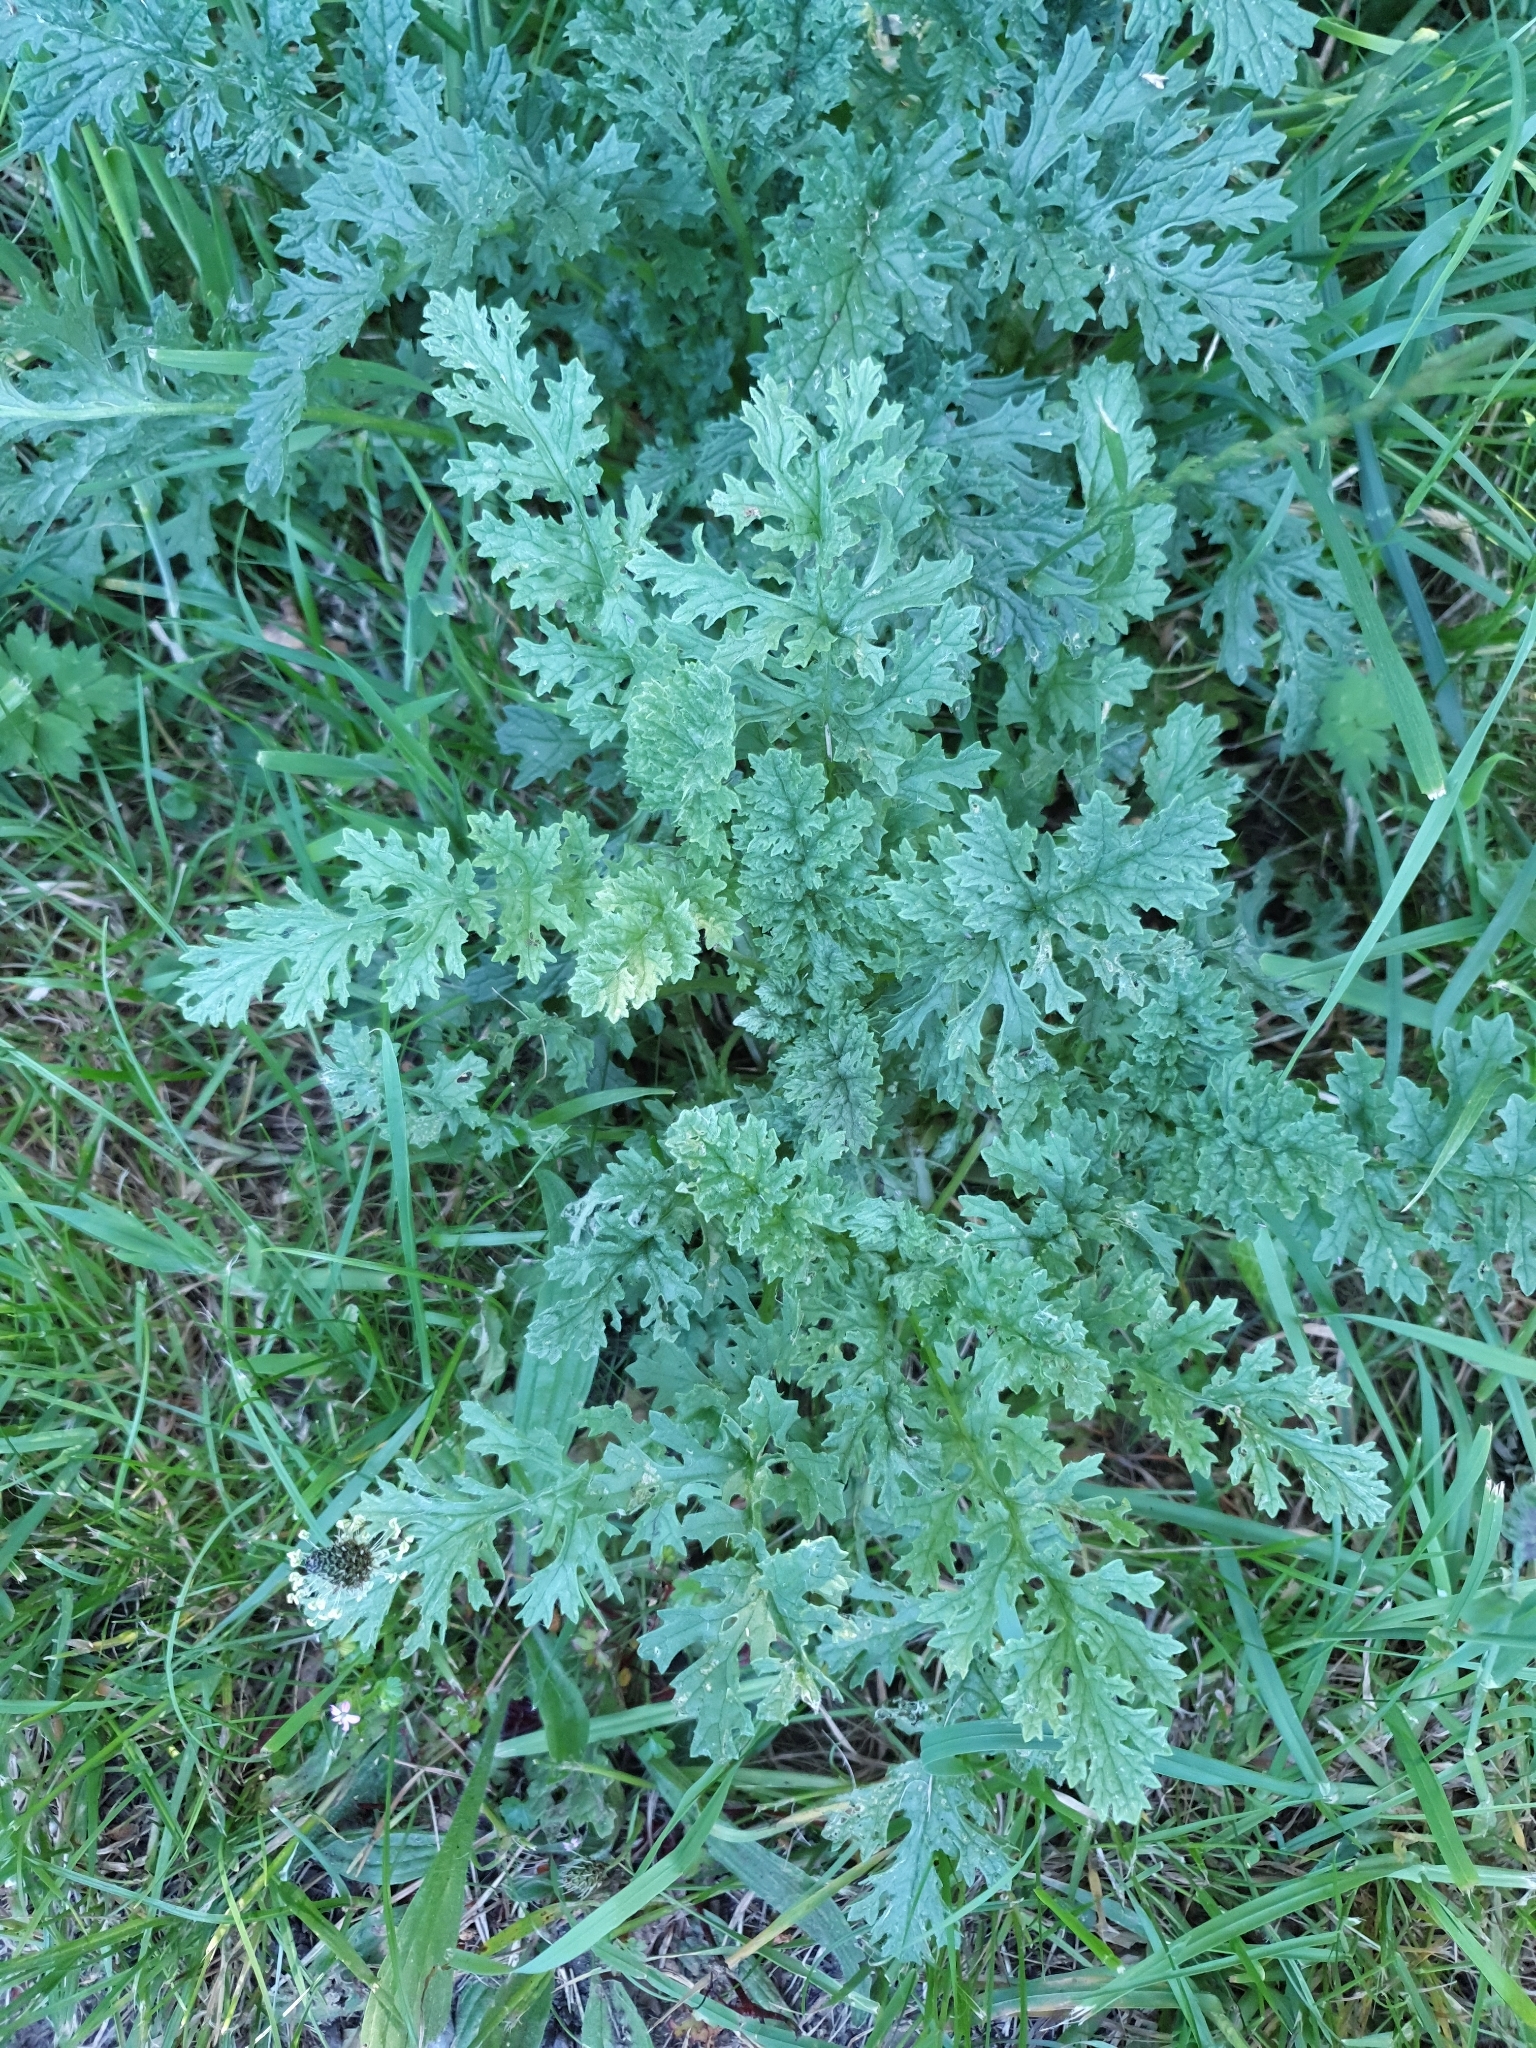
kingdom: Plantae
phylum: Tracheophyta
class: Magnoliopsida
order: Asterales
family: Asteraceae
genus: Jacobaea
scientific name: Jacobaea vulgaris
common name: Stinking willie
